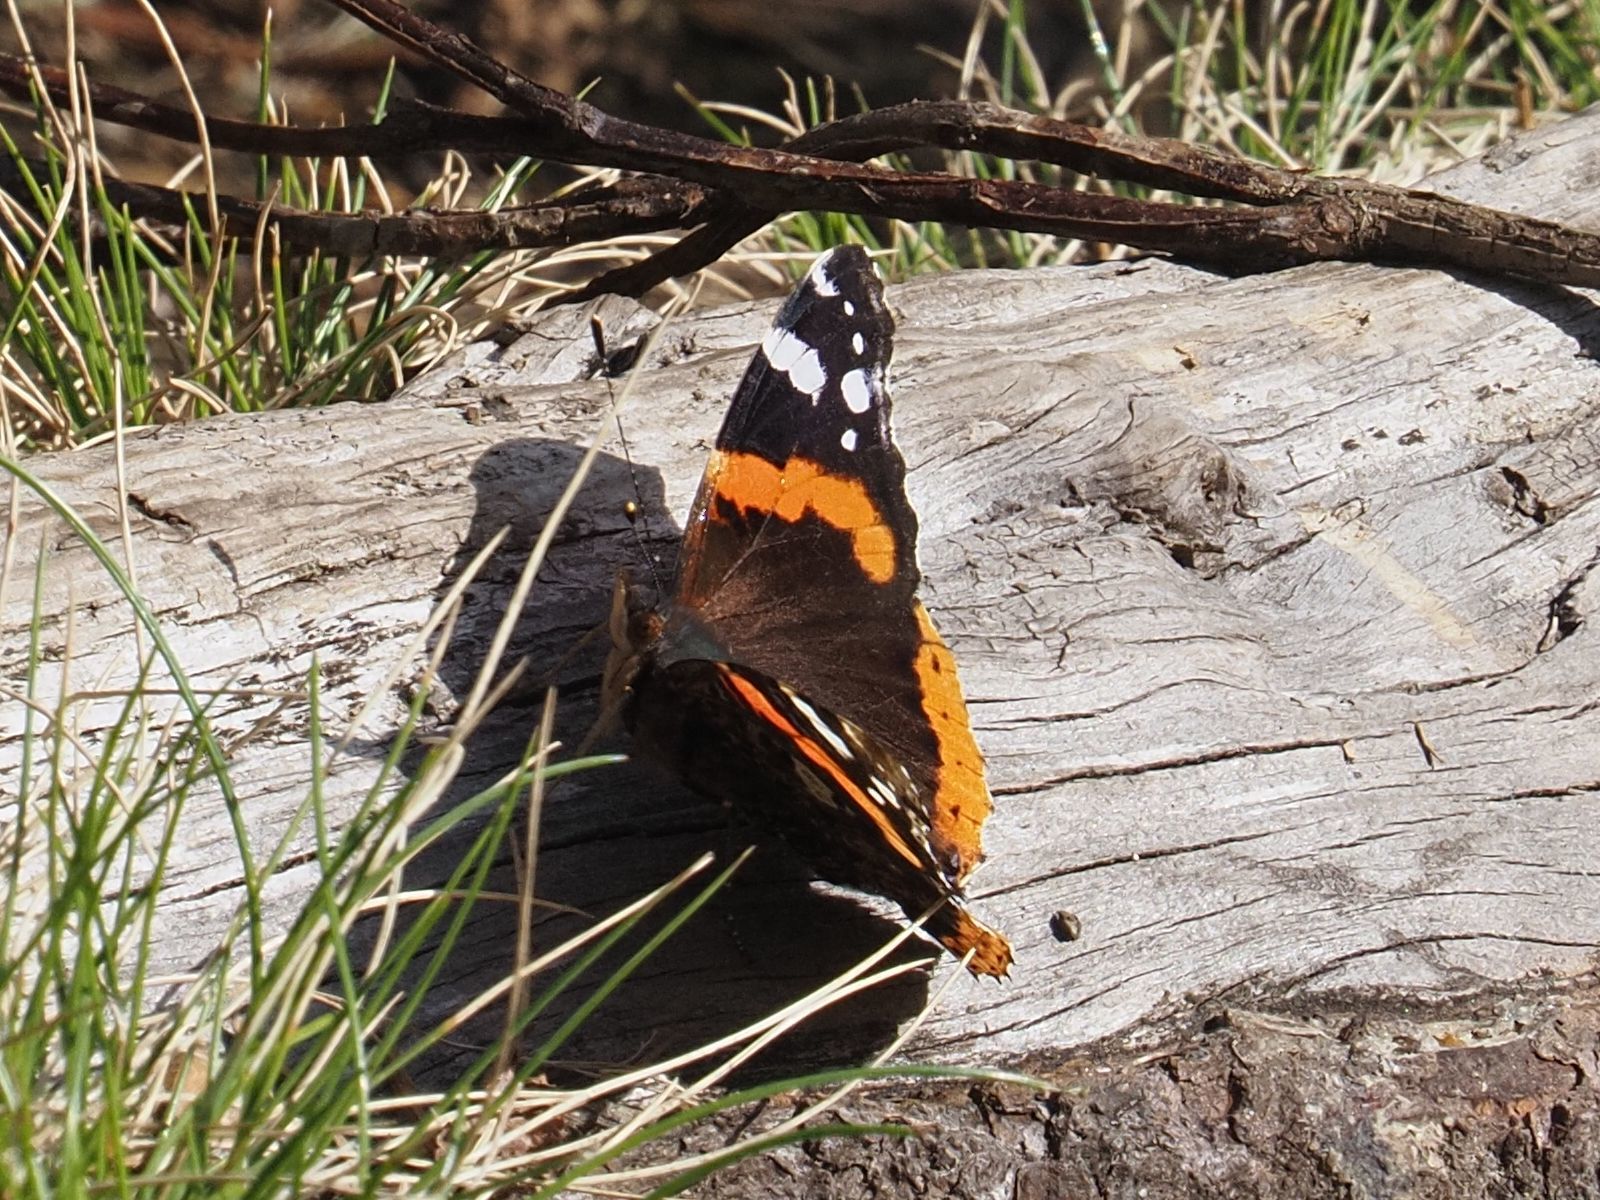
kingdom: Animalia
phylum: Arthropoda
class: Insecta
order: Lepidoptera
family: Nymphalidae
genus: Vanessa
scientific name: Vanessa atalanta
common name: Red admiral
